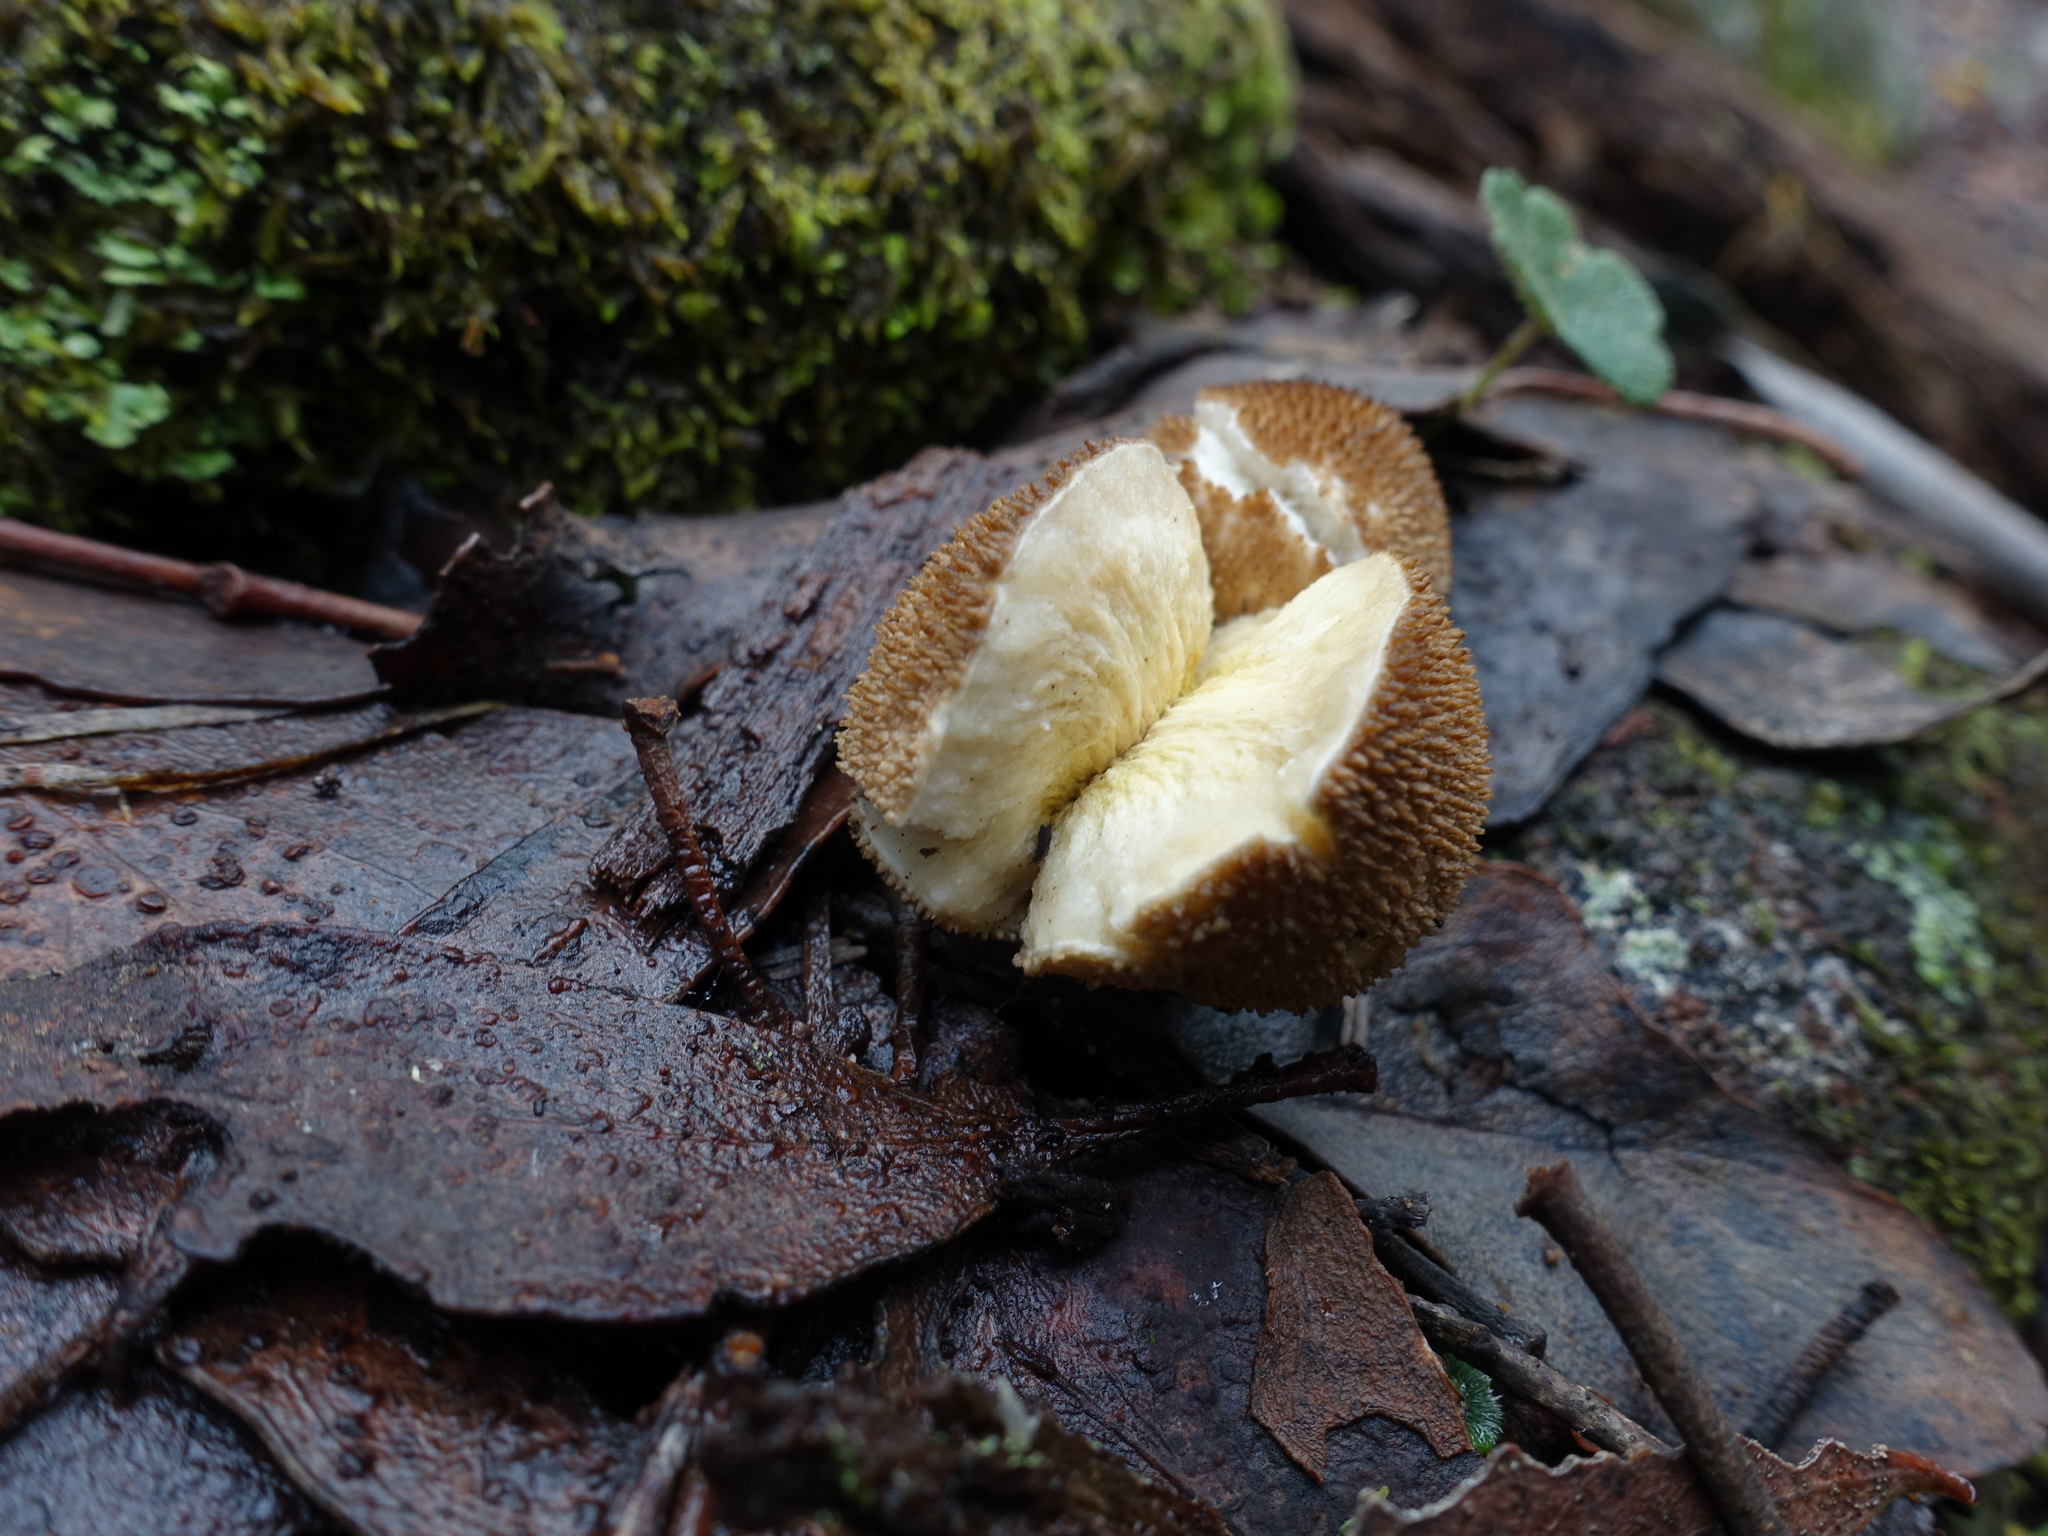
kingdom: Fungi
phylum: Basidiomycota
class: Agaricomycetes
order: Agaricales
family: Lycoperdaceae
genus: Lycoperdon
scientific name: Lycoperdon perlatum
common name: Common puffball
